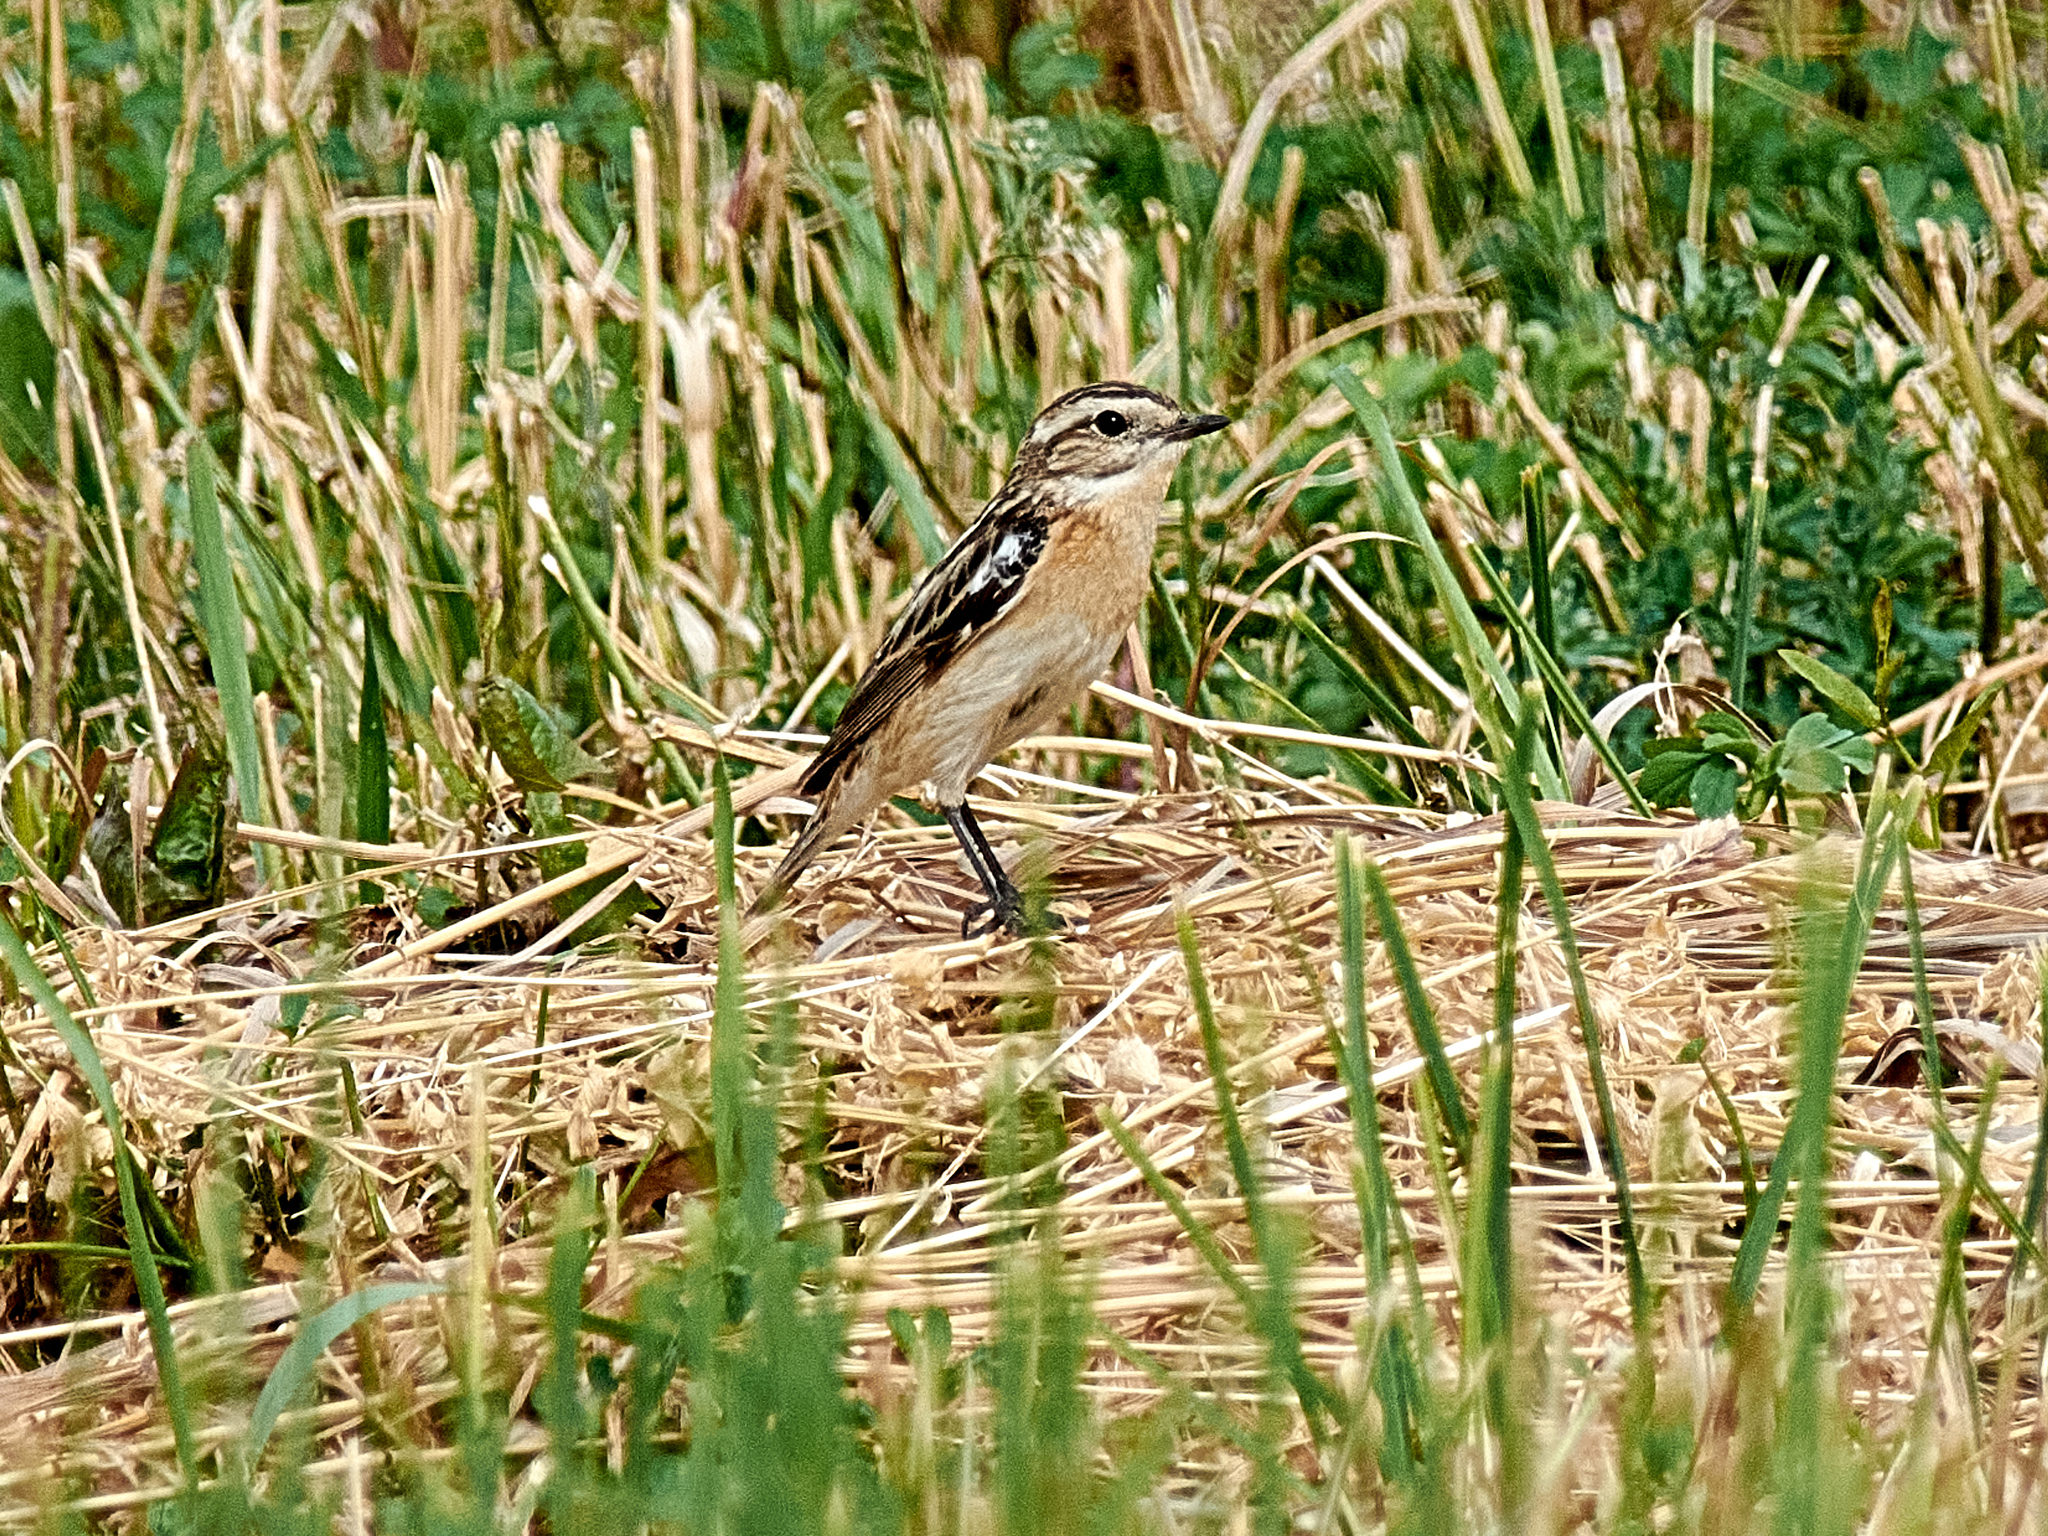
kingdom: Animalia
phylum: Chordata
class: Aves
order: Passeriformes
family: Muscicapidae
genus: Saxicola
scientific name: Saxicola rubetra
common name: Whinchat
